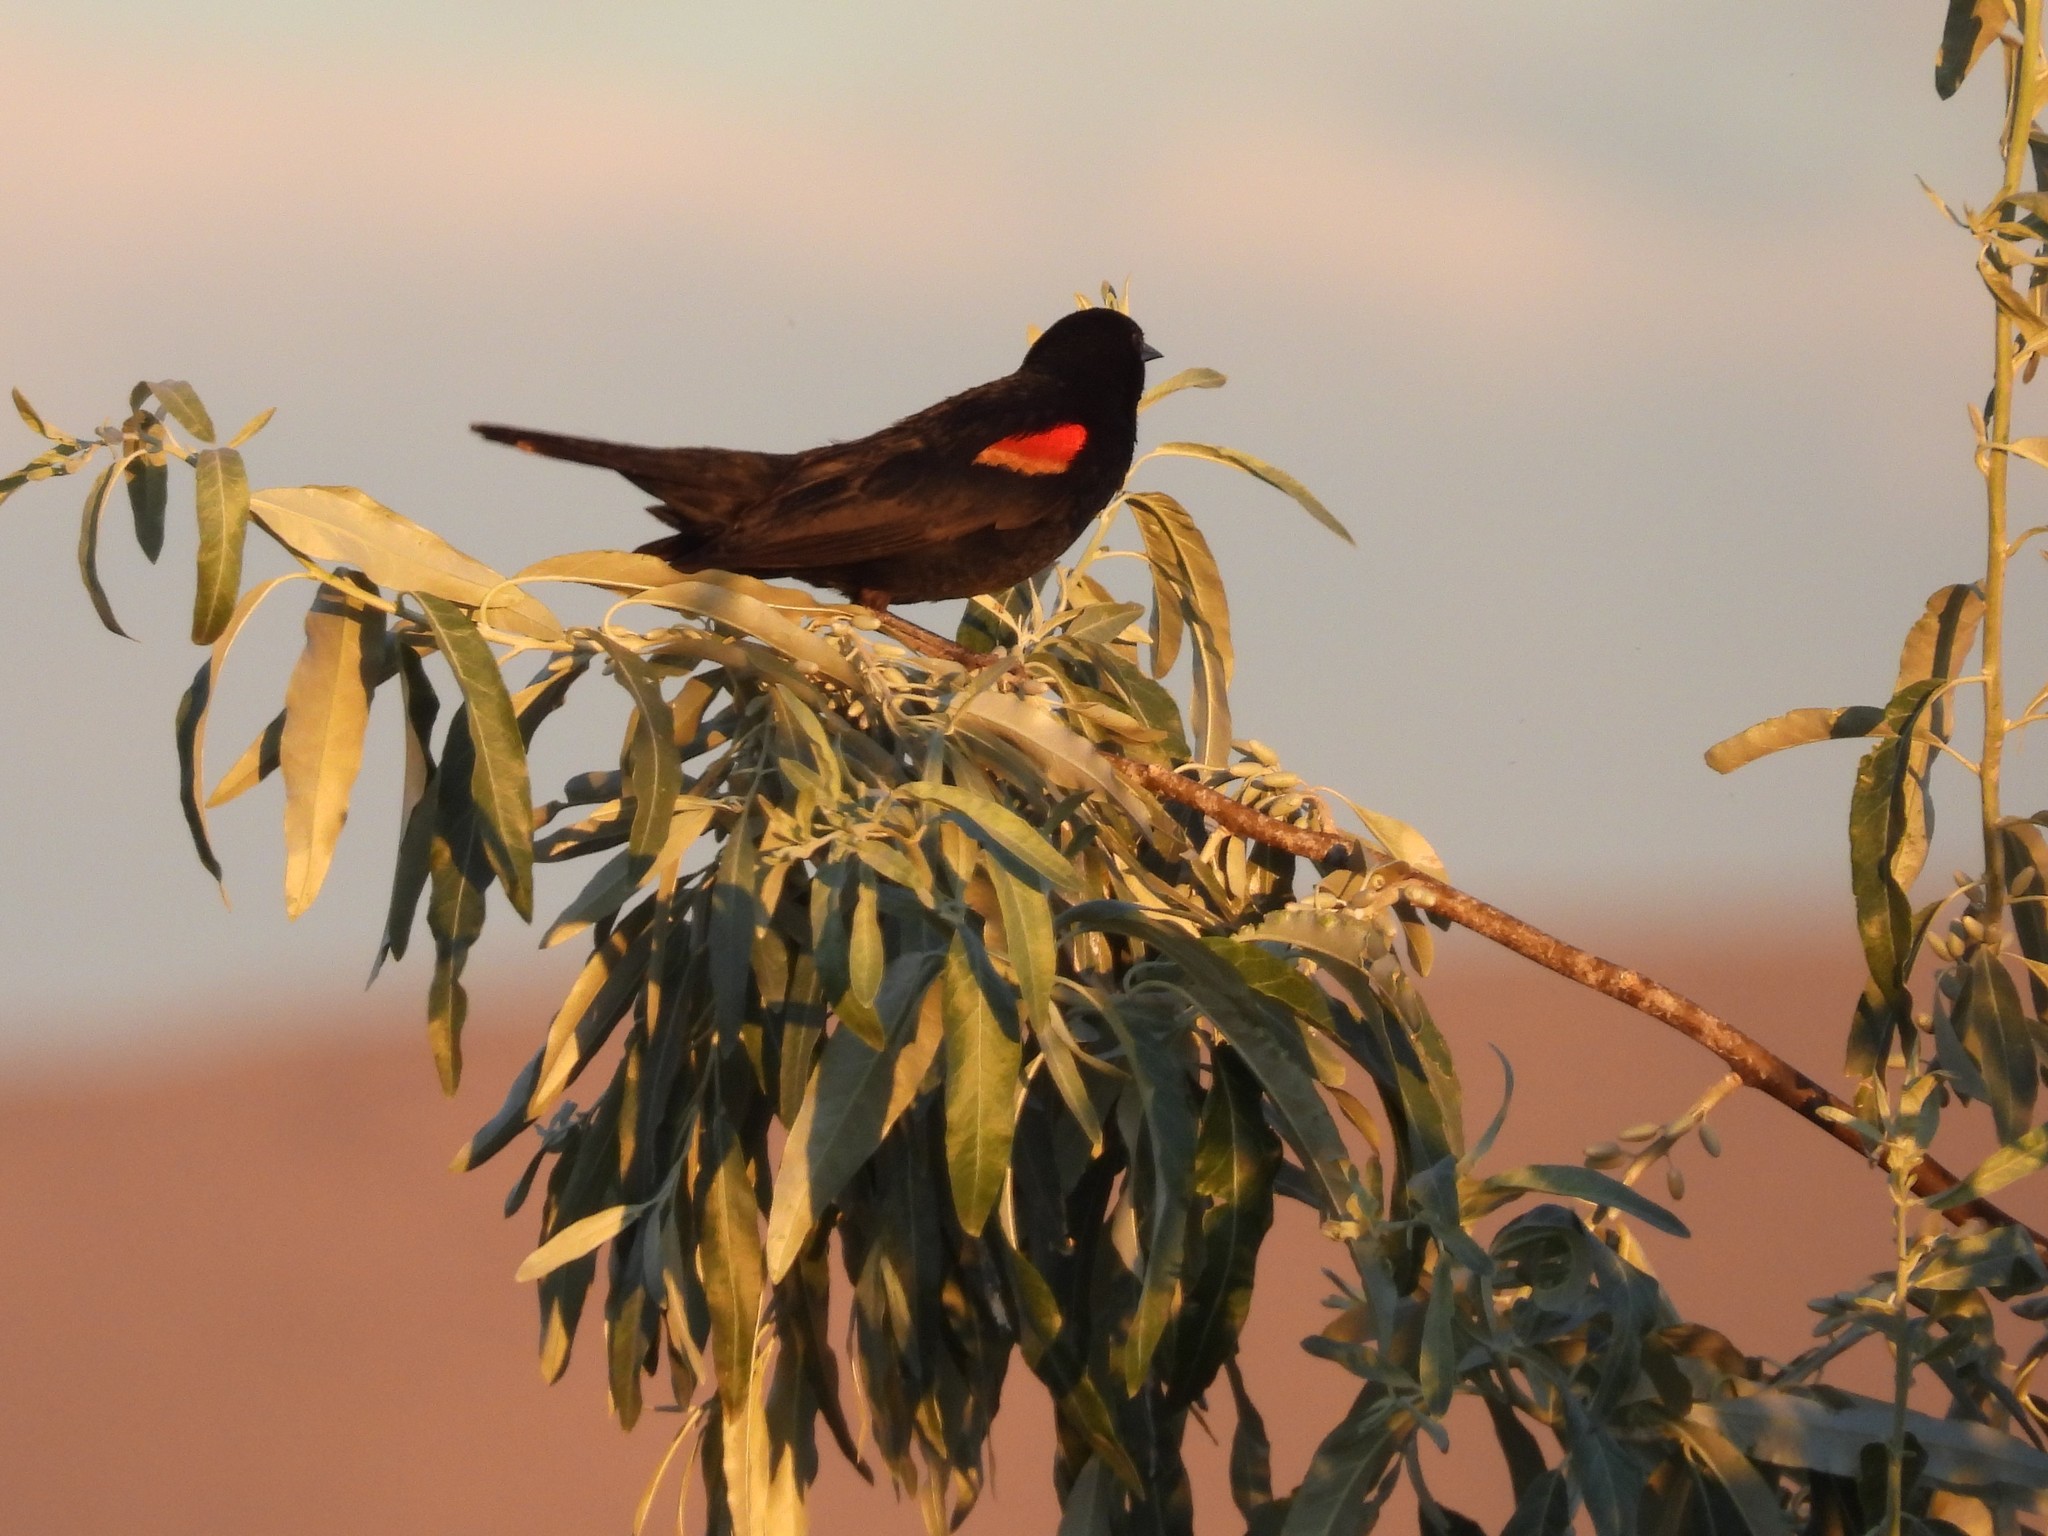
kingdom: Animalia
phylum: Chordata
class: Aves
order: Passeriformes
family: Icteridae
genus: Agelaius
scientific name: Agelaius phoeniceus
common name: Red-winged blackbird
